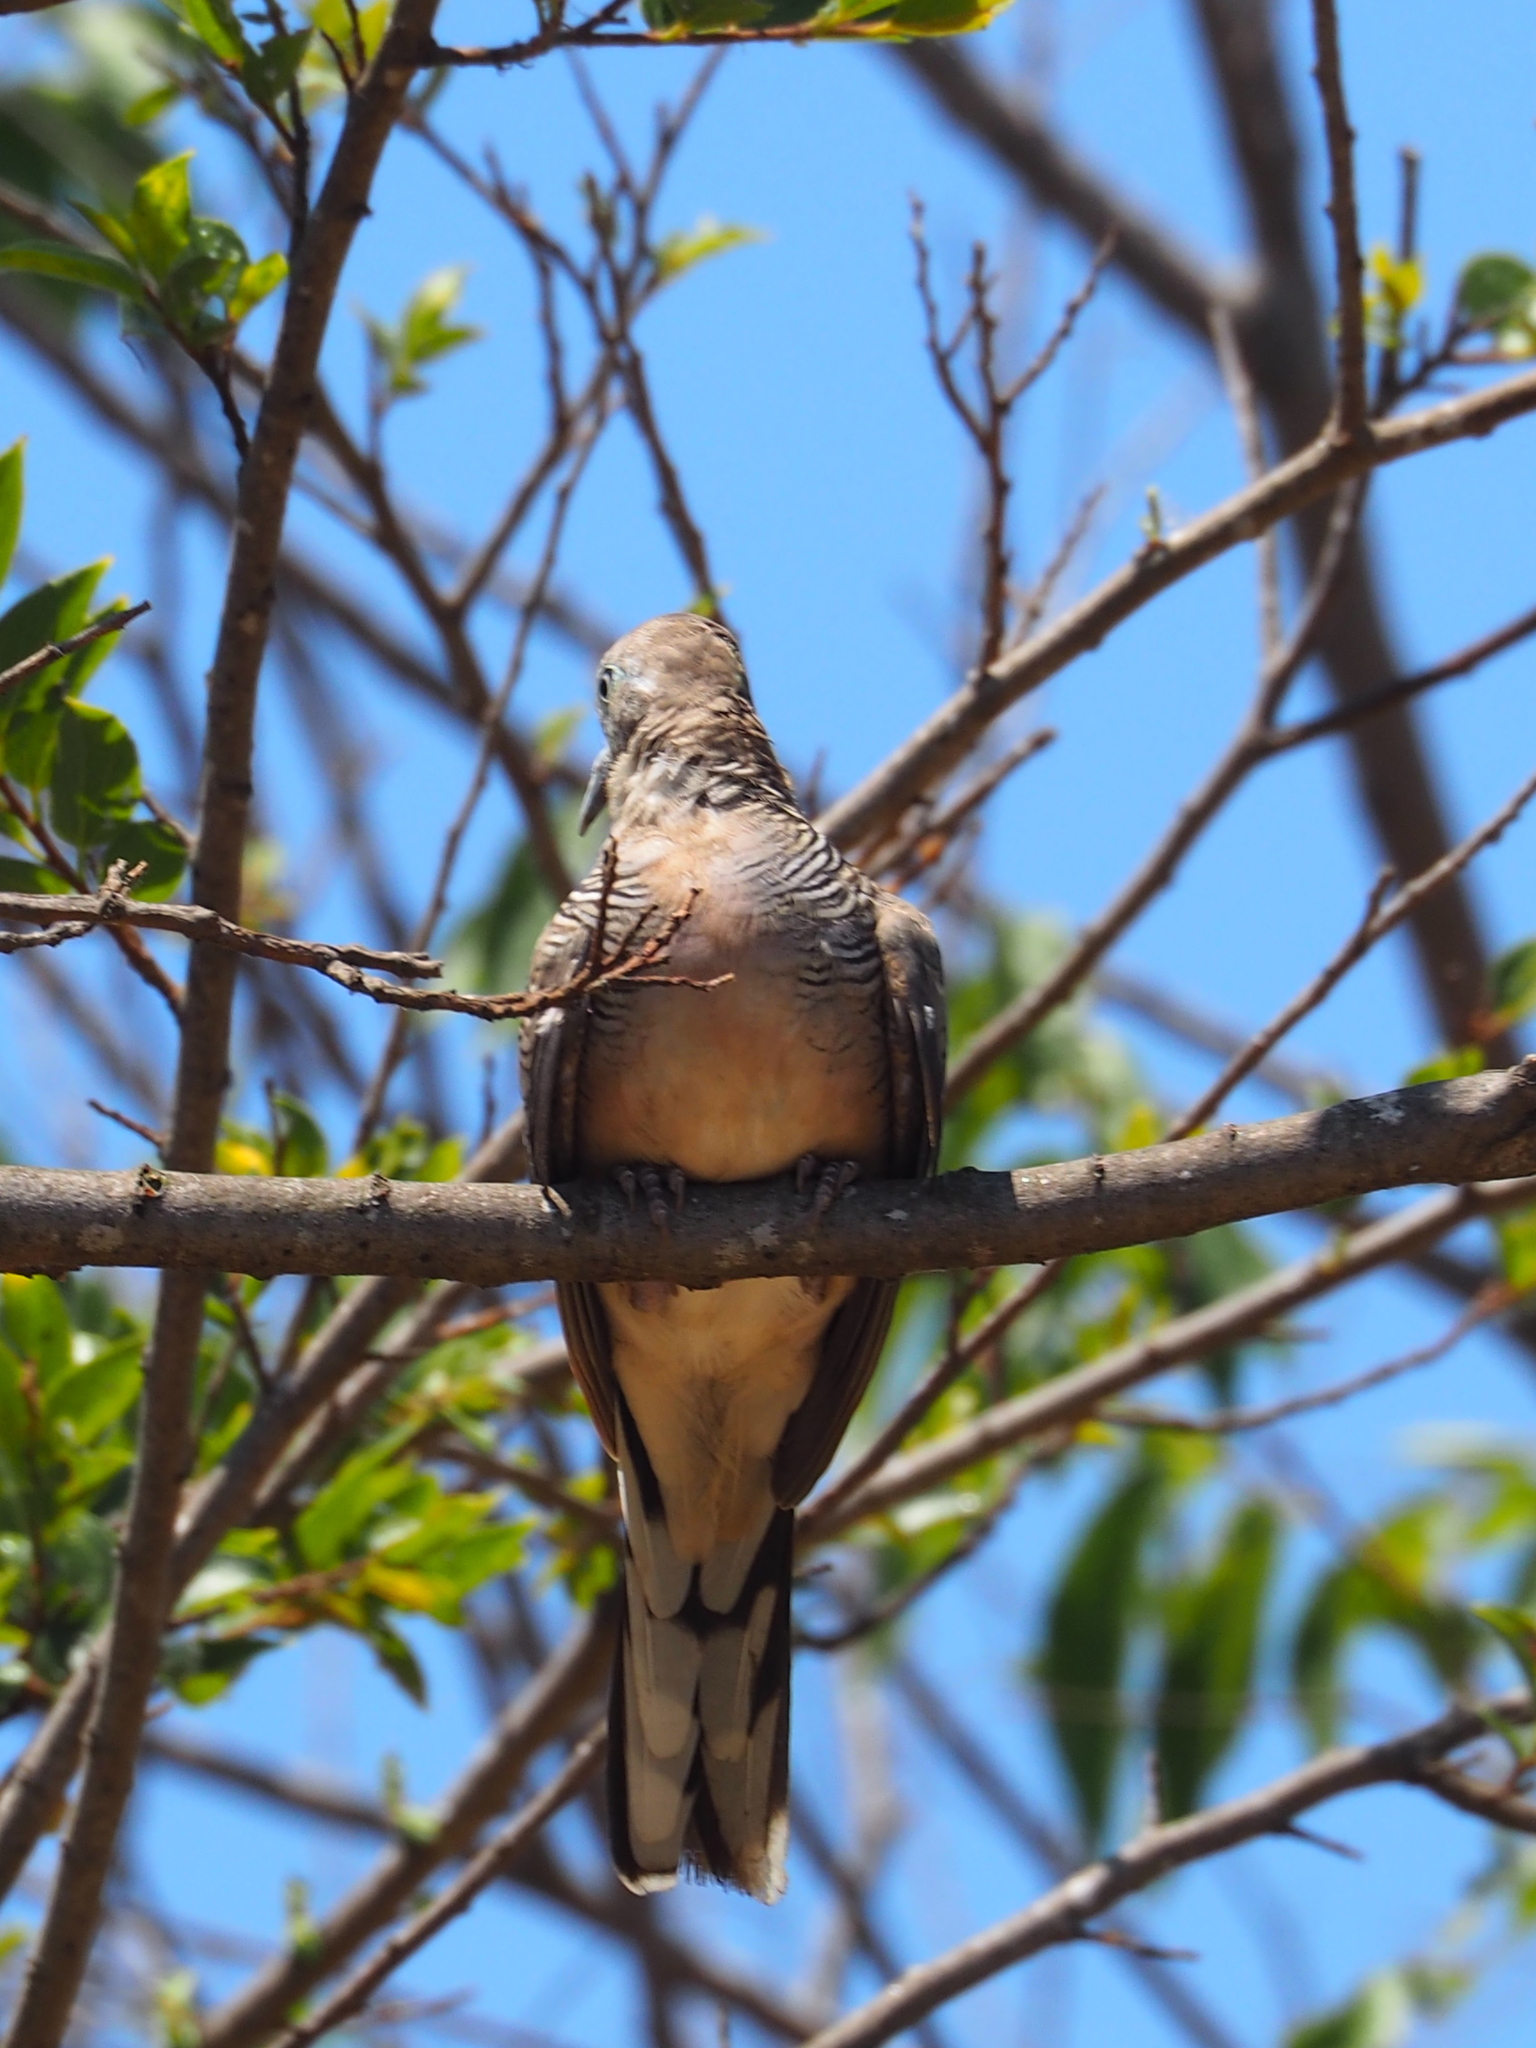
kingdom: Animalia
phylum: Chordata
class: Aves
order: Columbiformes
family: Columbidae
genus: Geopelia
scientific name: Geopelia striata
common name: Zebra dove
